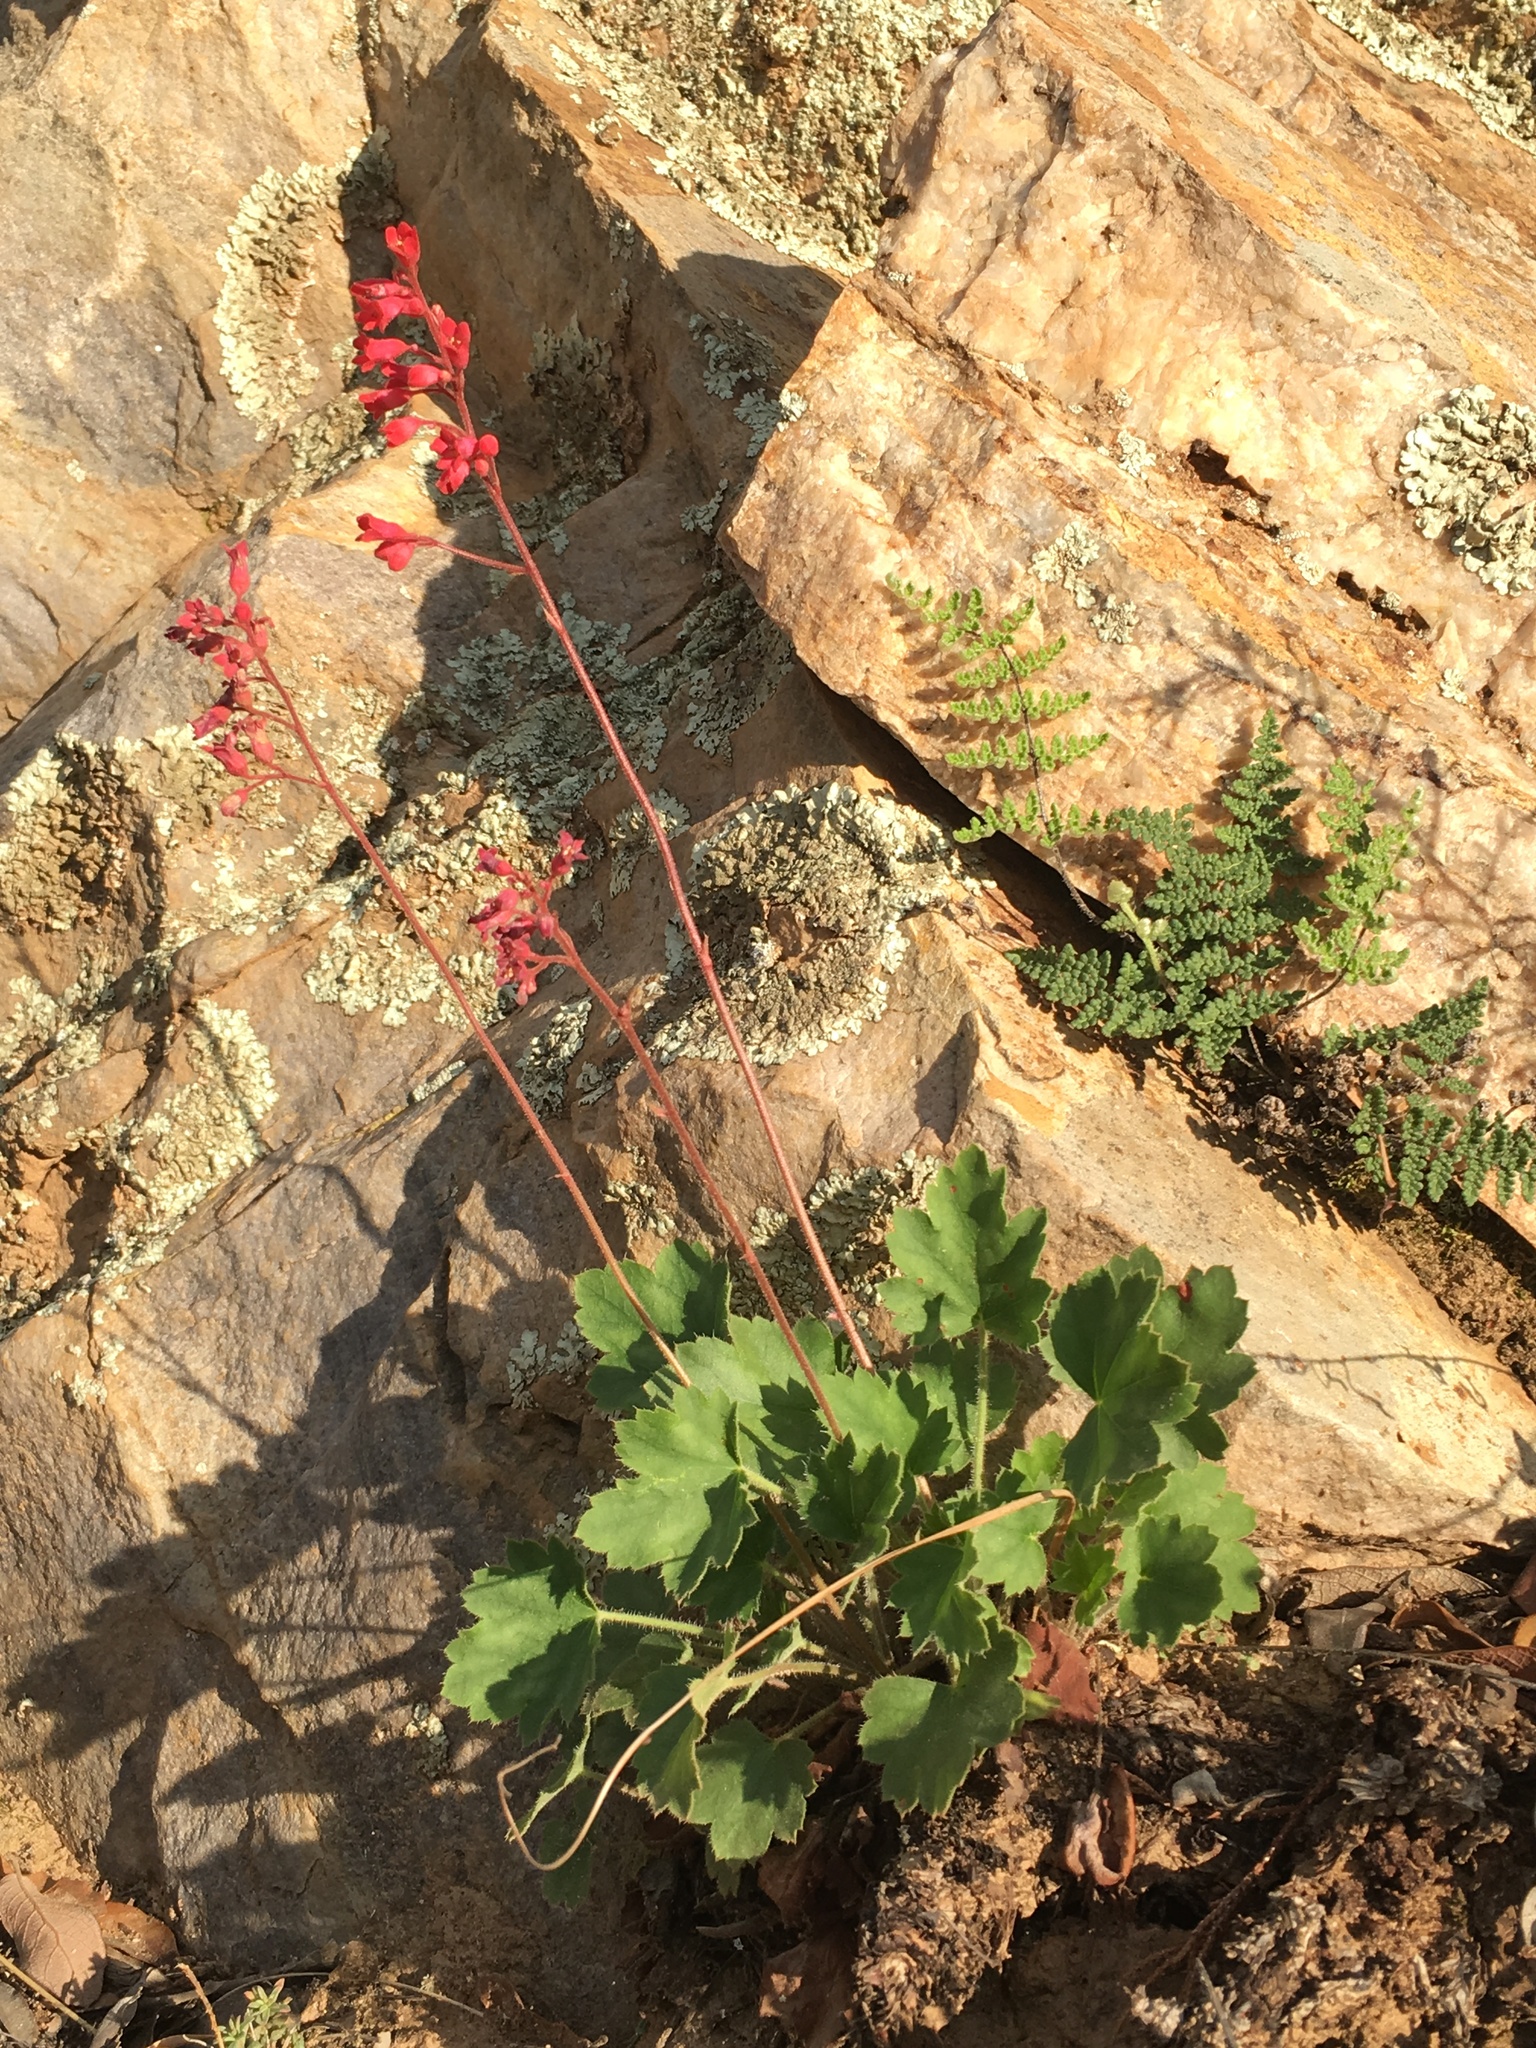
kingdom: Plantae
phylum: Tracheophyta
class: Magnoliopsida
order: Saxifragales
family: Saxifragaceae
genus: Heuchera
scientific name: Heuchera sanguinea
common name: Coralbells
